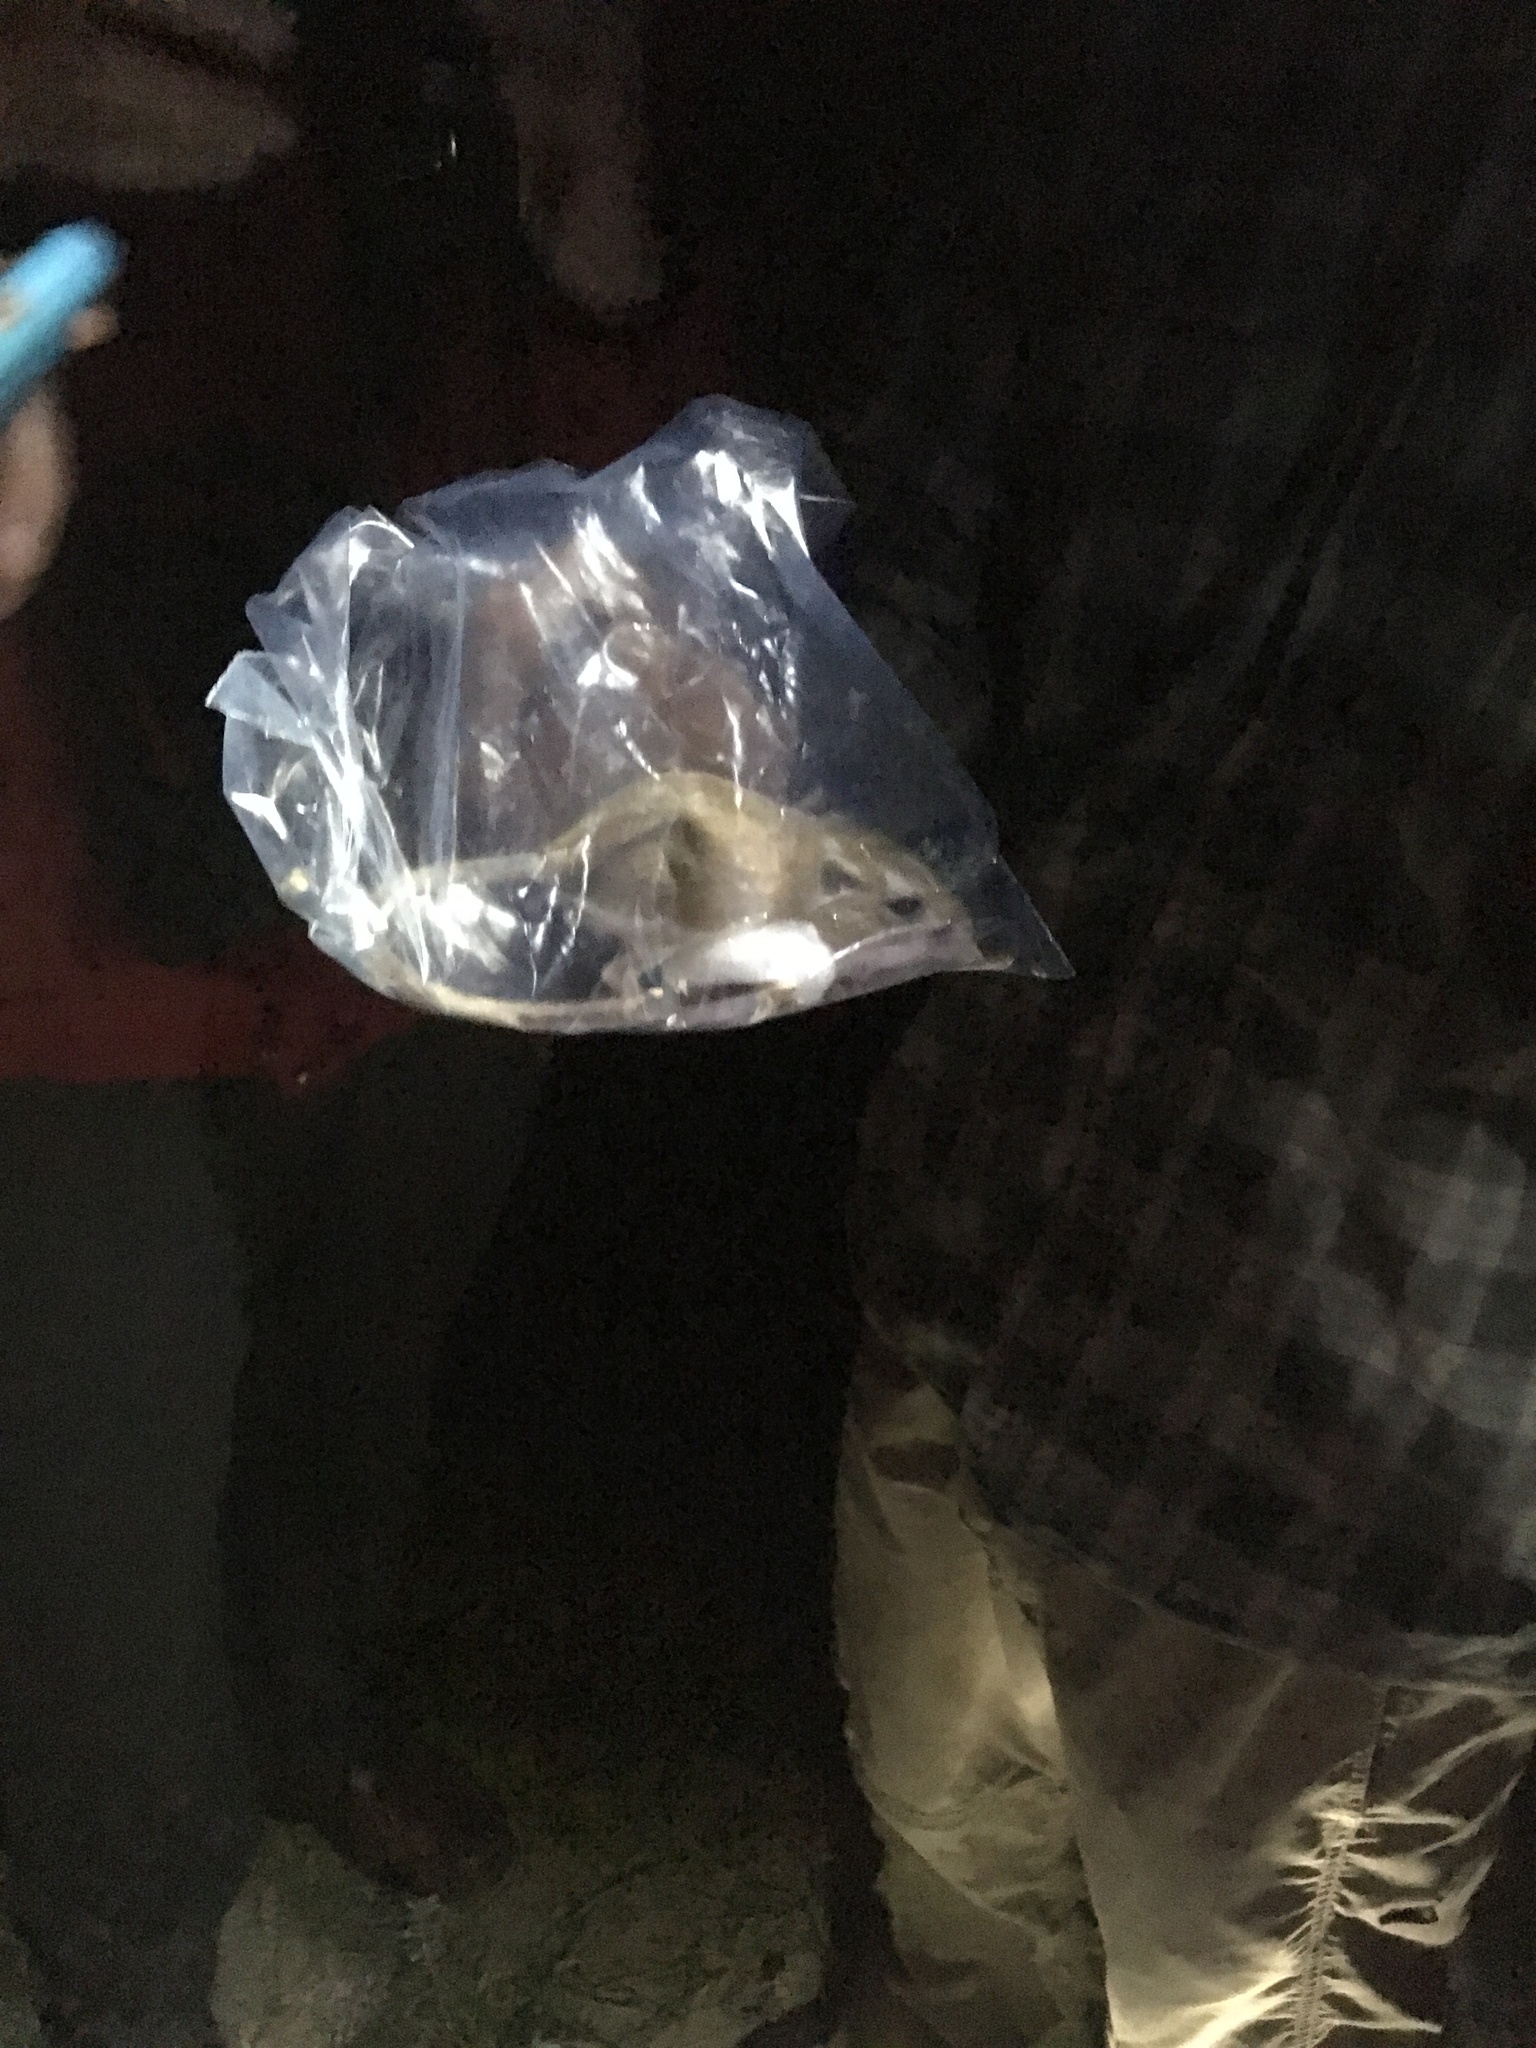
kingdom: Animalia
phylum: Chordata
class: Mammalia
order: Rodentia
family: Heteromyidae
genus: Dipodomys
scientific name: Dipodomys ordii
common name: Ord's kangaroo rat
